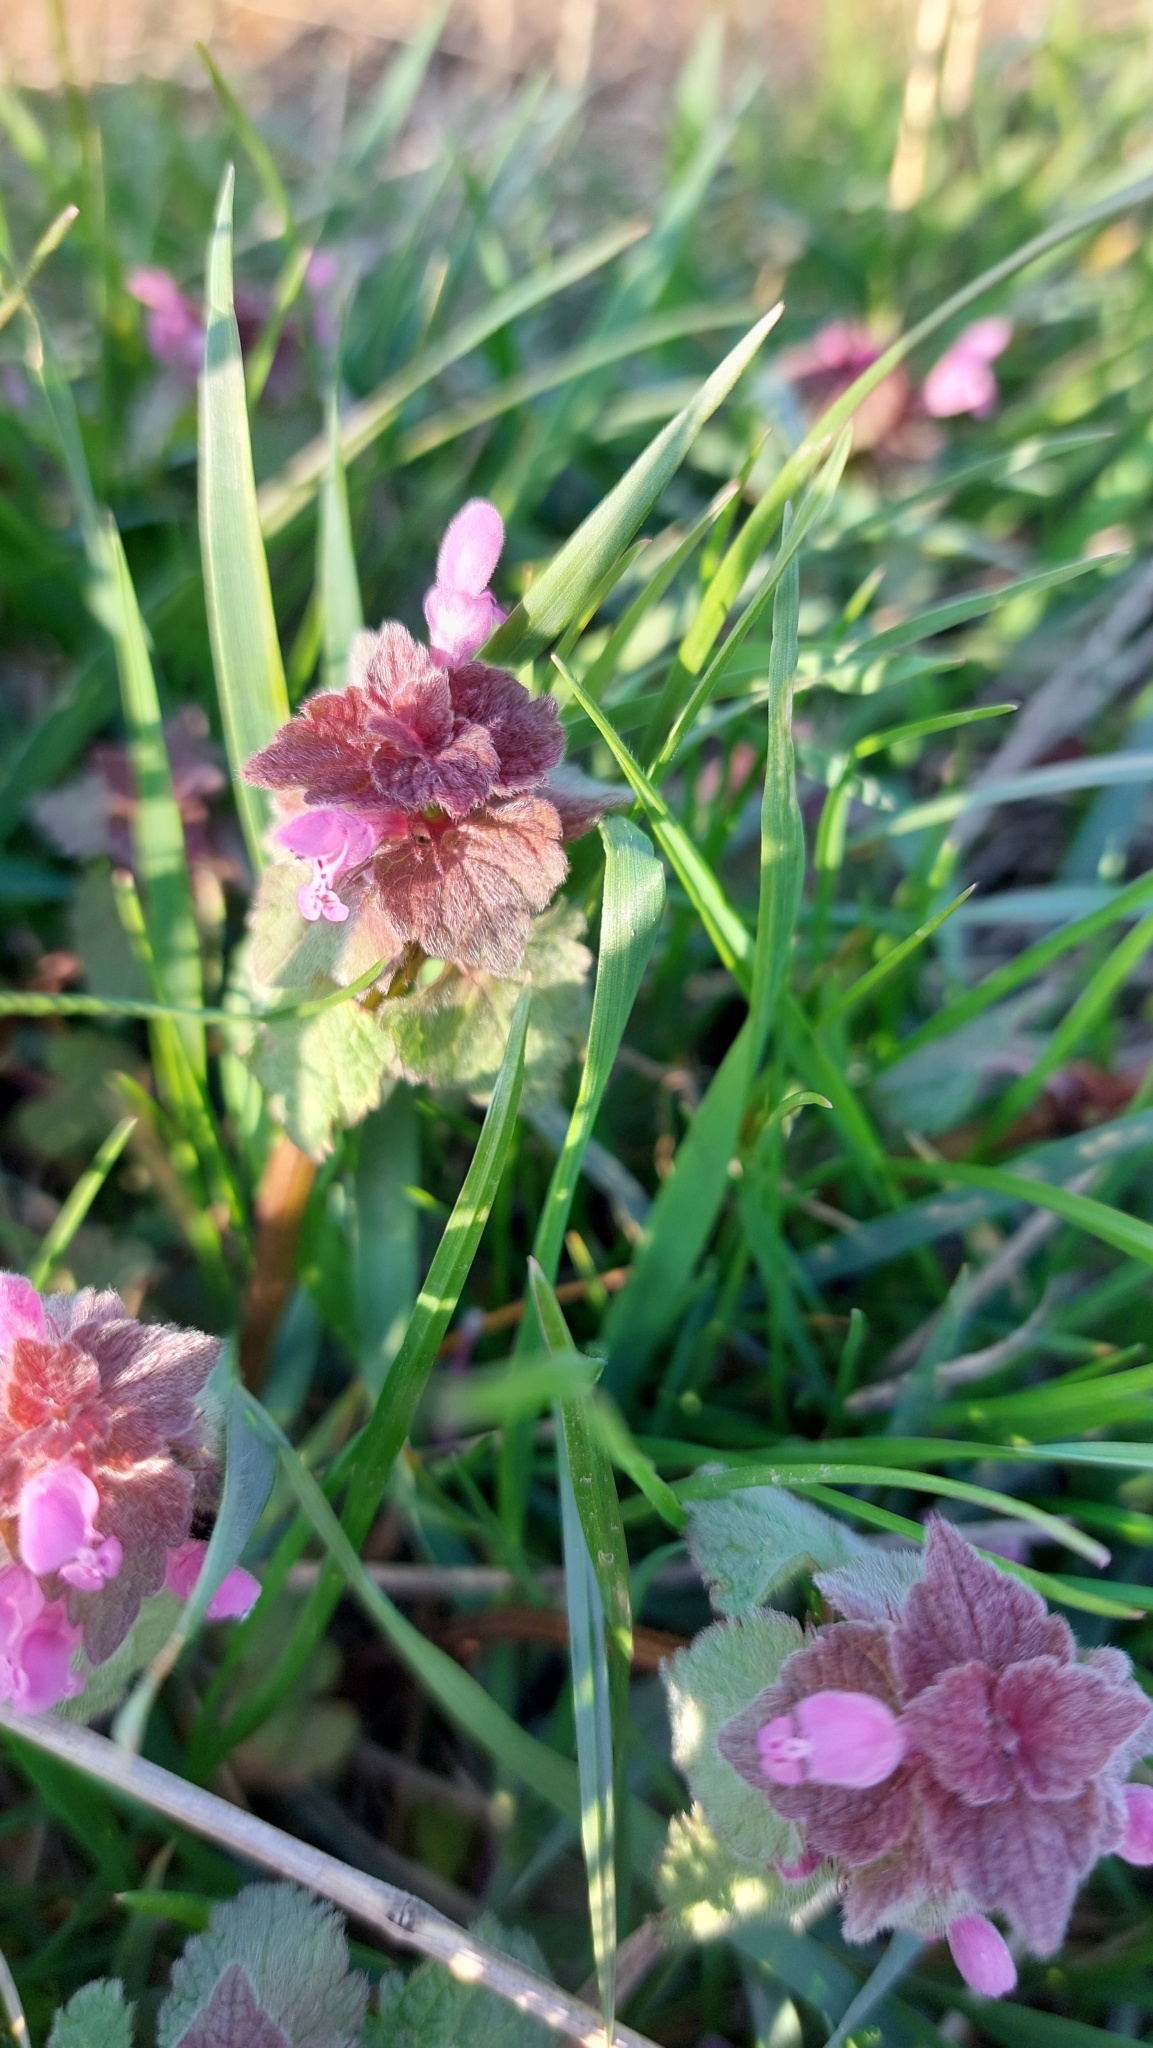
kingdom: Plantae
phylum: Tracheophyta
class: Magnoliopsida
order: Lamiales
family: Lamiaceae
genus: Lamium
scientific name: Lamium purpureum
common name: Red dead-nettle
